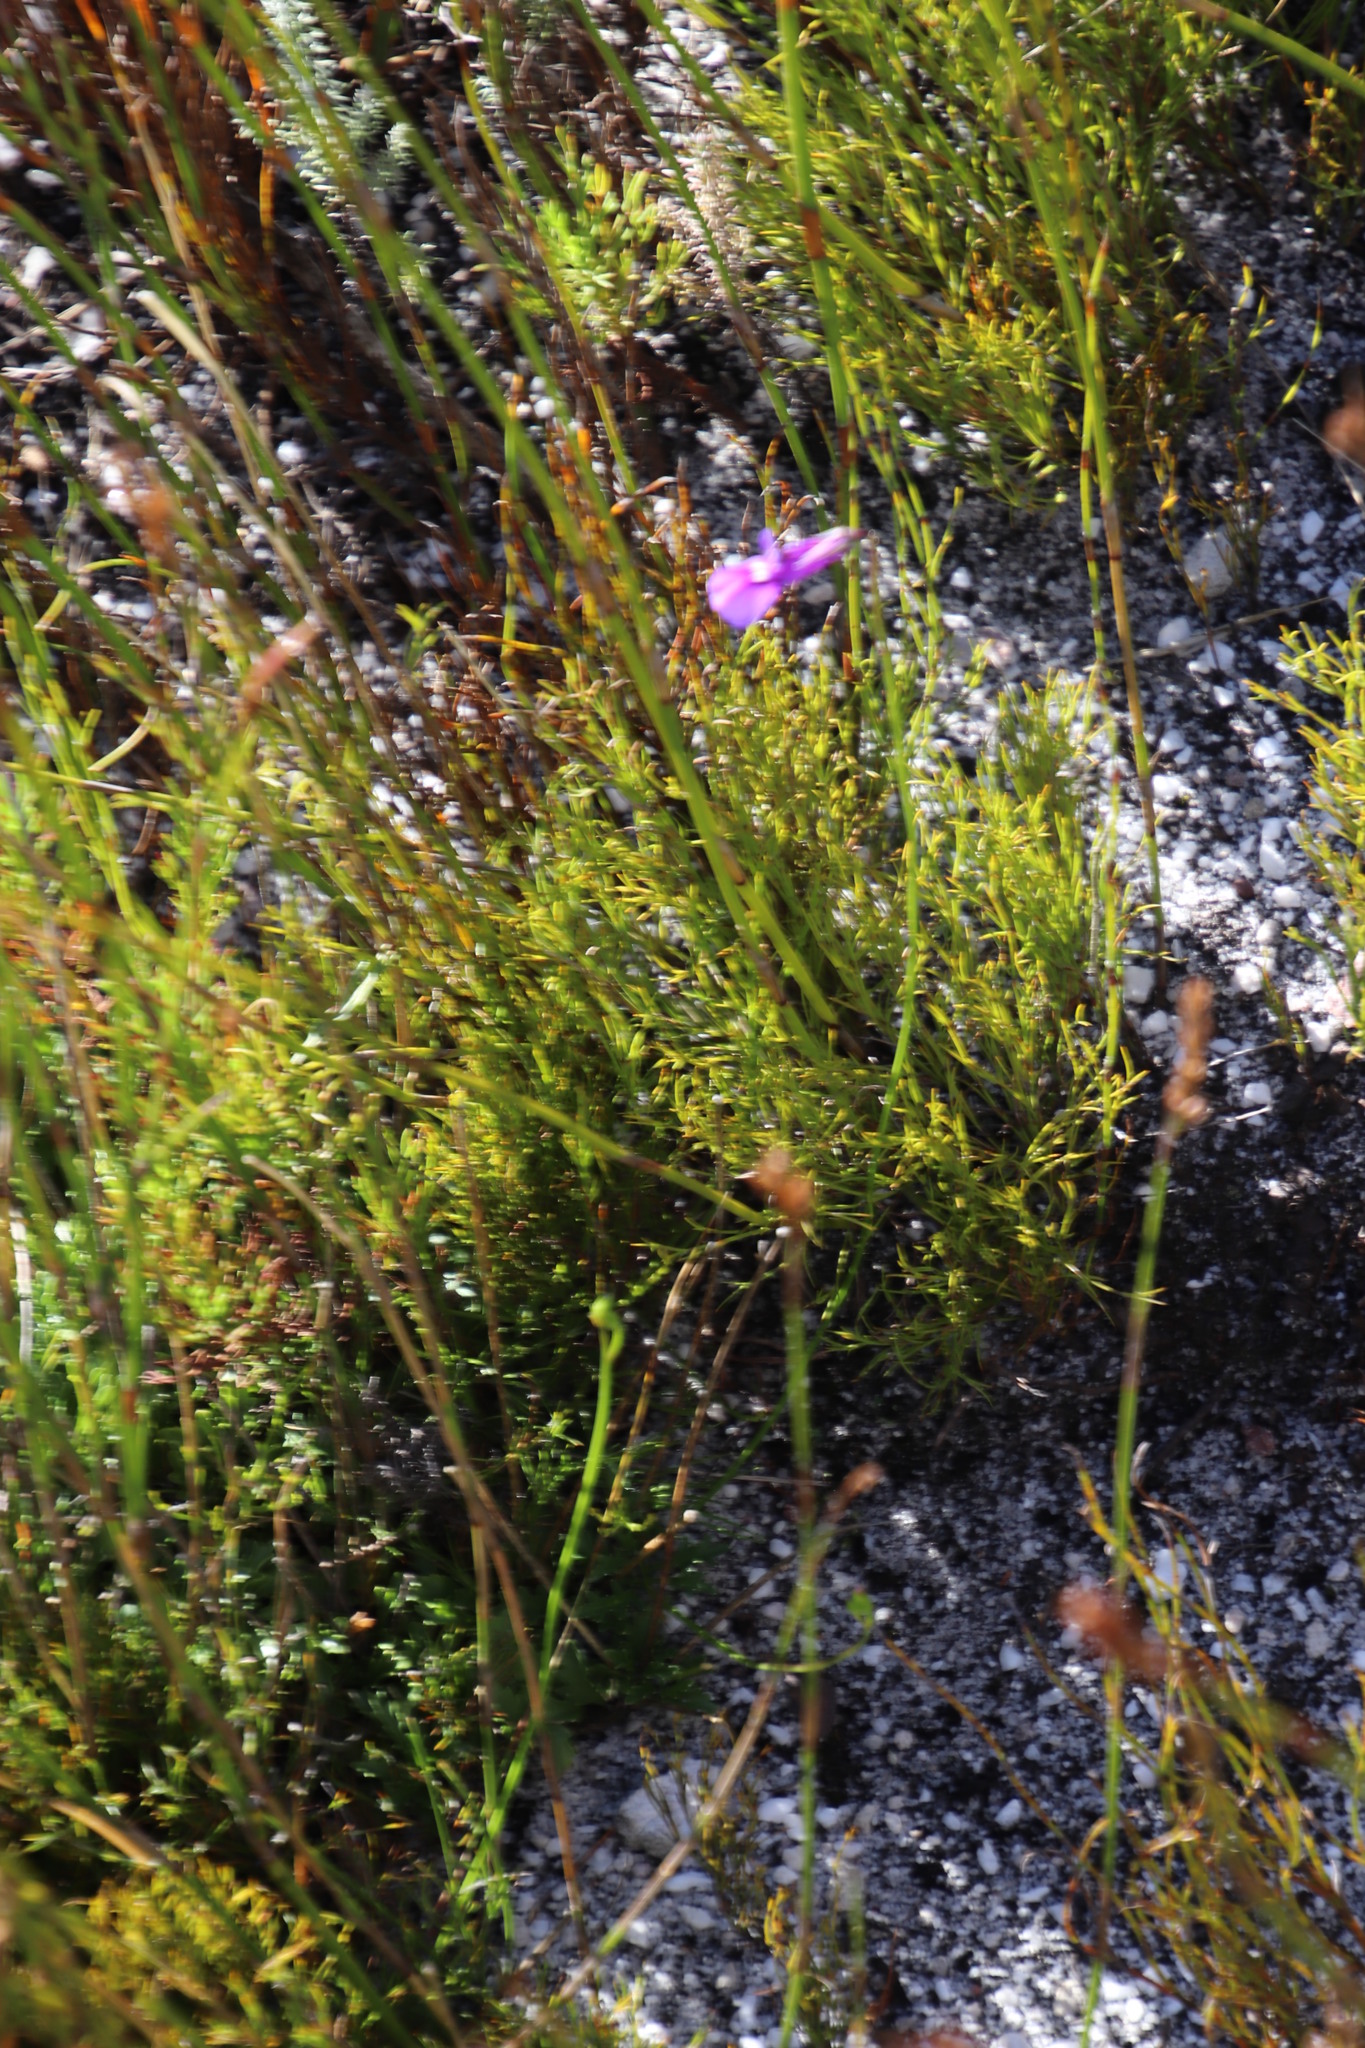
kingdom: Plantae
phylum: Tracheophyta
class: Magnoliopsida
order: Asterales
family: Campanulaceae
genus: Lobelia
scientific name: Lobelia coronopifolia
